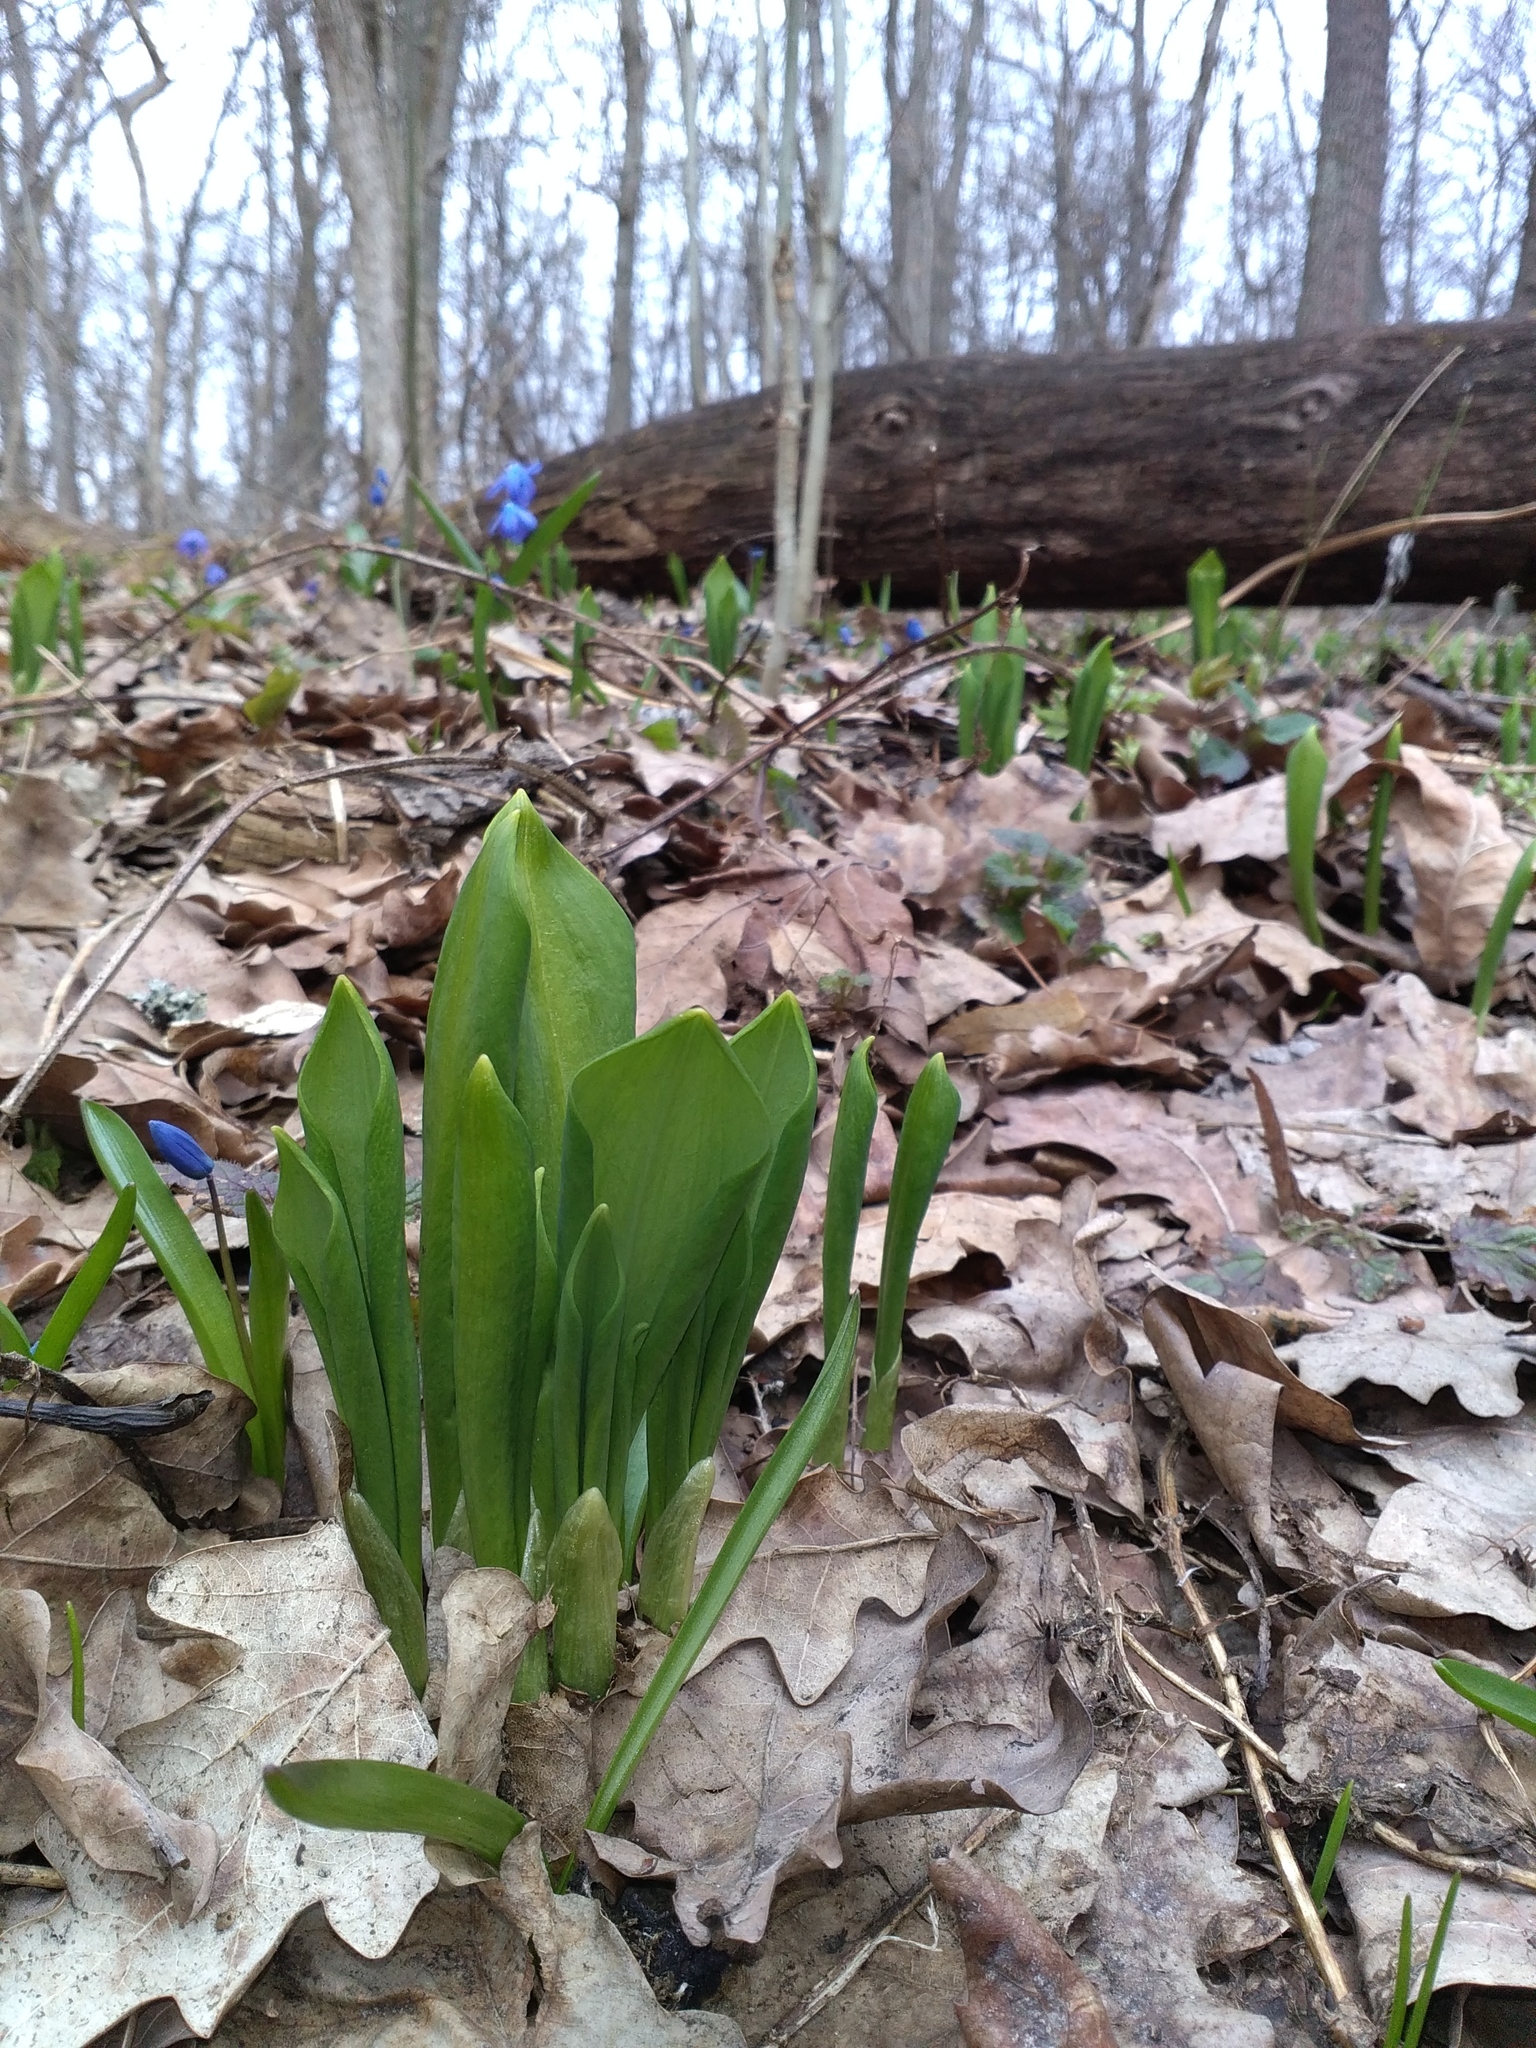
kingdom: Plantae
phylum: Tracheophyta
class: Liliopsida
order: Asparagales
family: Amaryllidaceae
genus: Allium
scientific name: Allium ursinum
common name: Ramsons
